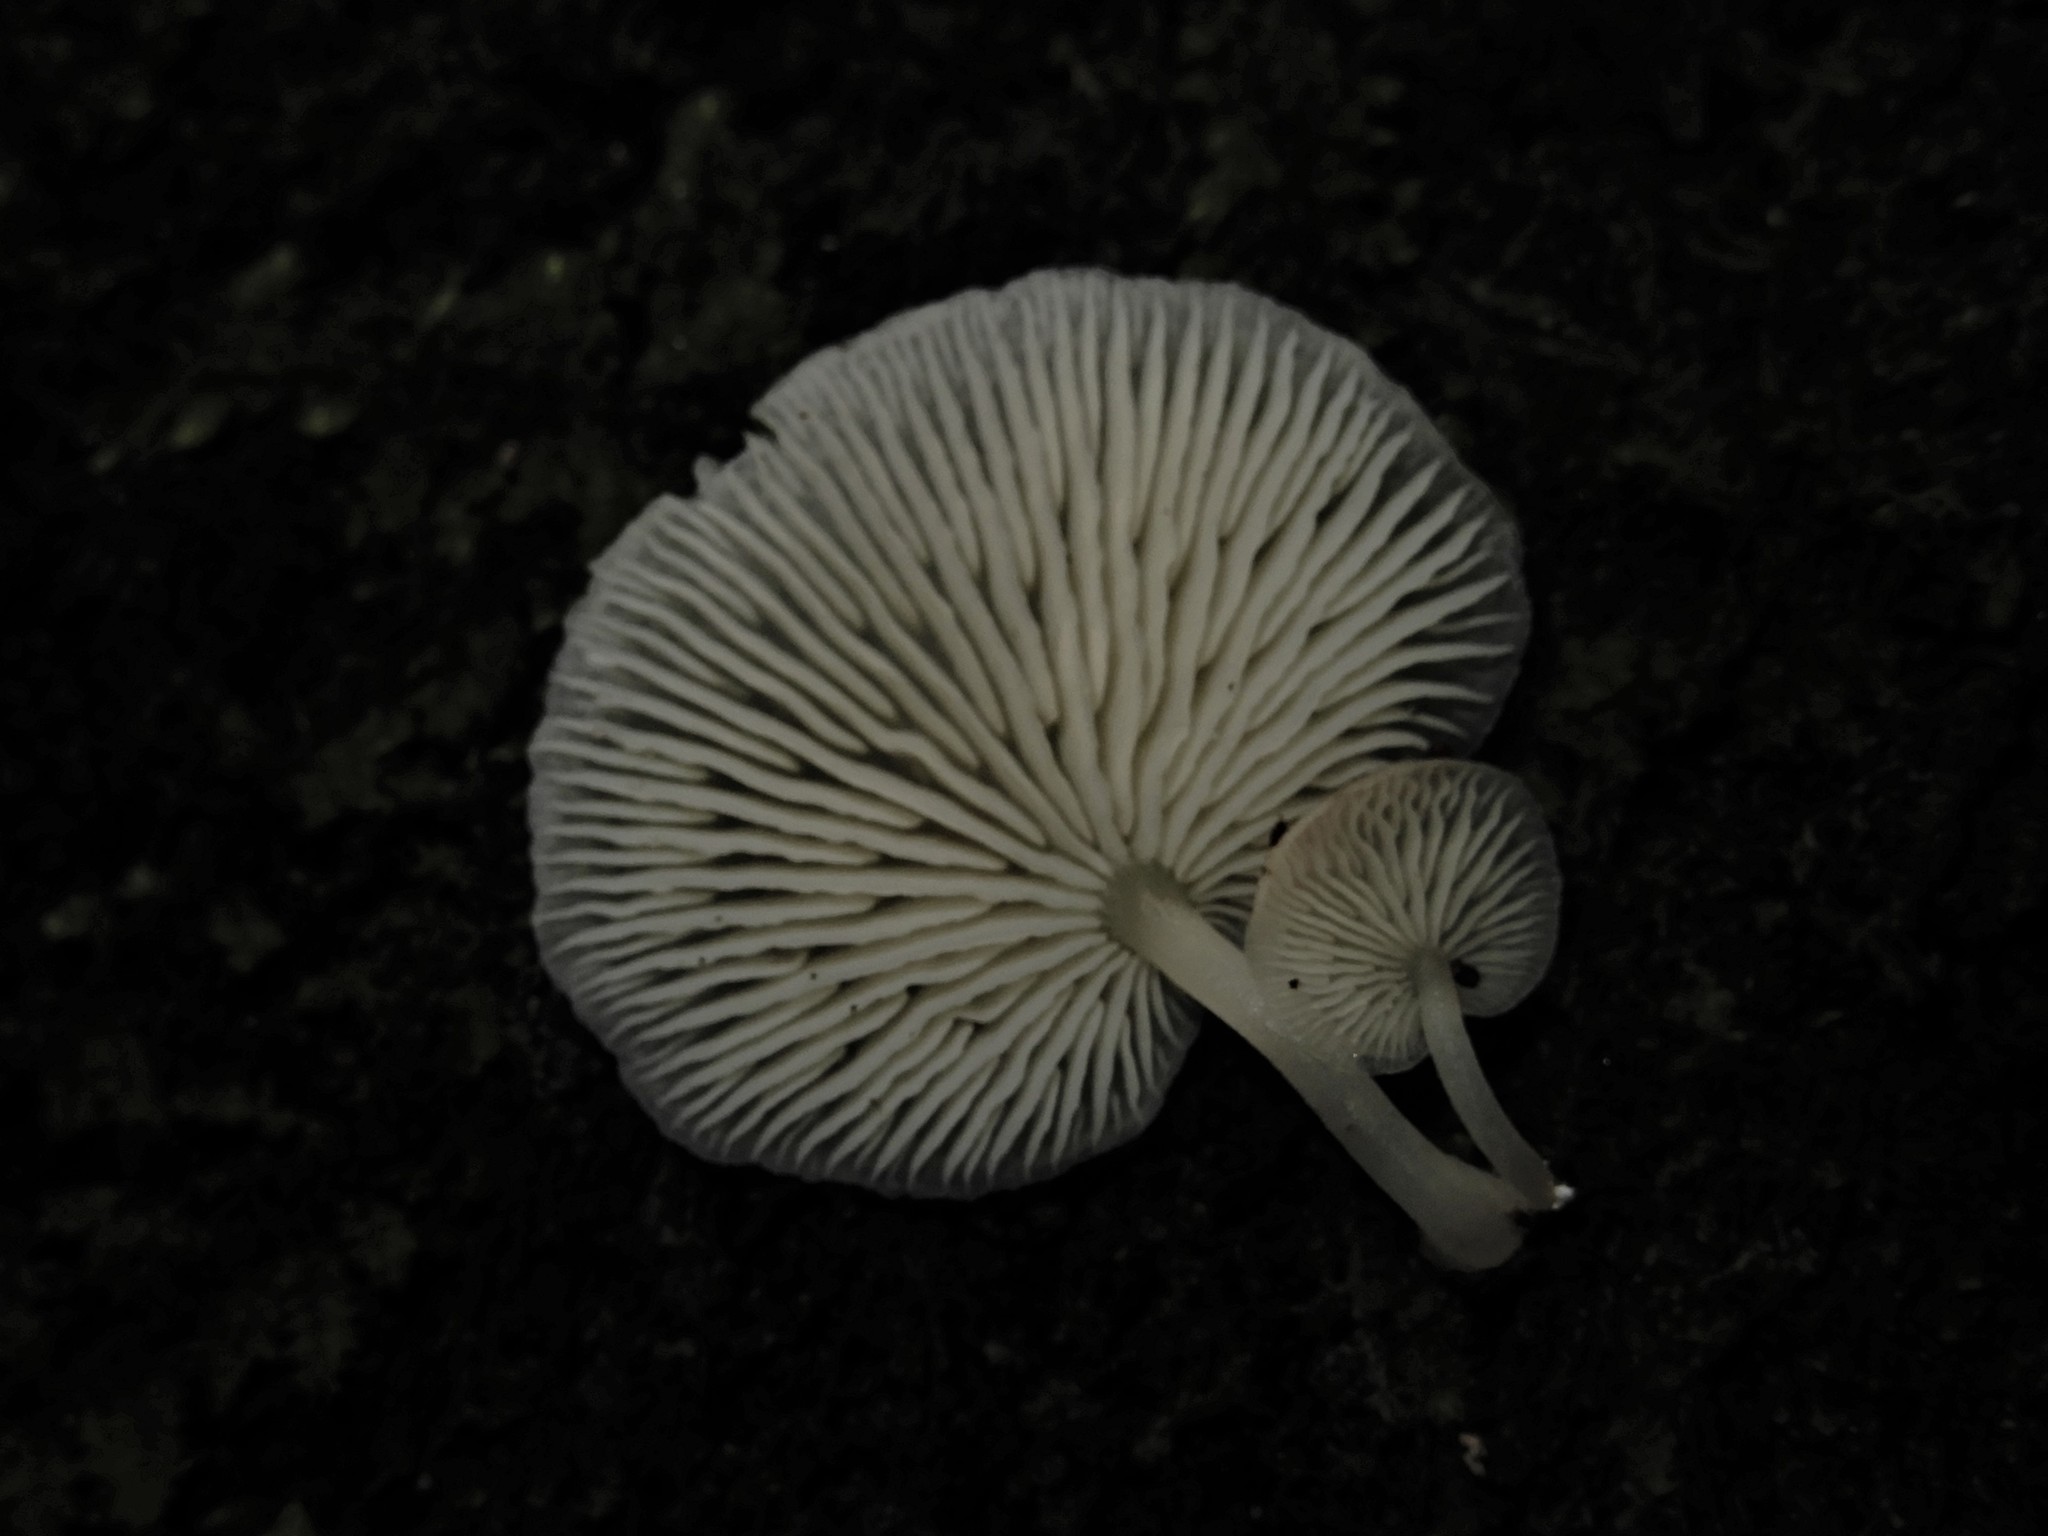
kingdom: Fungi
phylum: Basidiomycota
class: Agaricomycetes
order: Agaricales
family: Marasmiaceae
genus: Lactocollybia
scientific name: Lactocollybia
